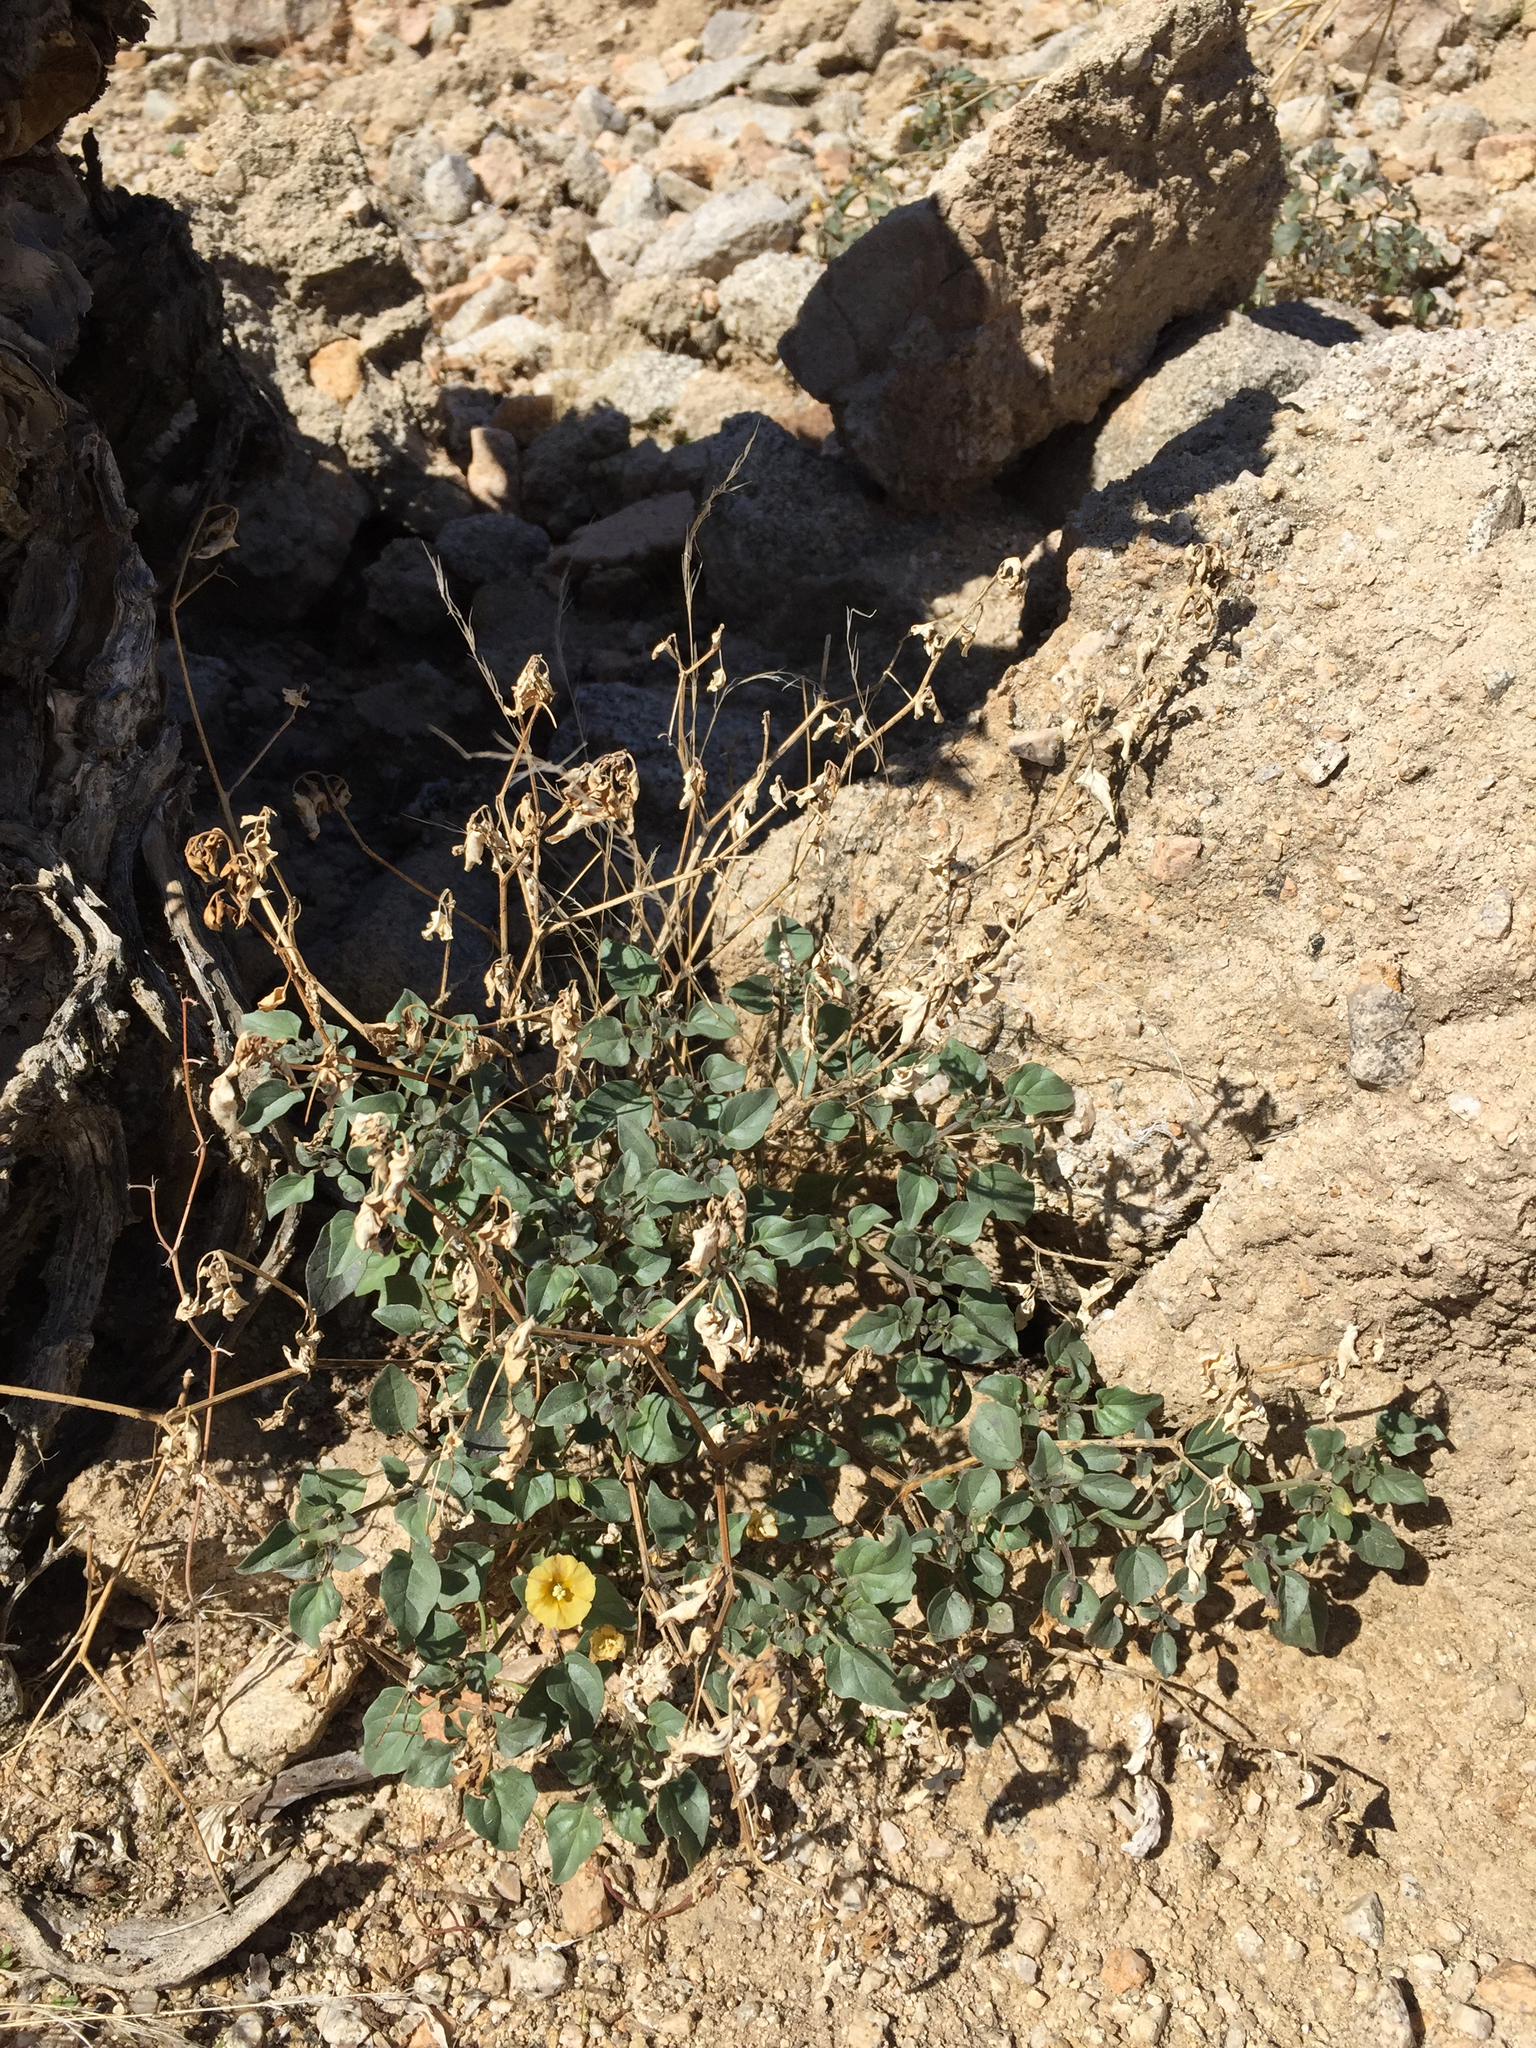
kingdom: Plantae
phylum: Tracheophyta
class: Magnoliopsida
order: Solanales
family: Solanaceae
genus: Physalis
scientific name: Physalis crassifolia
